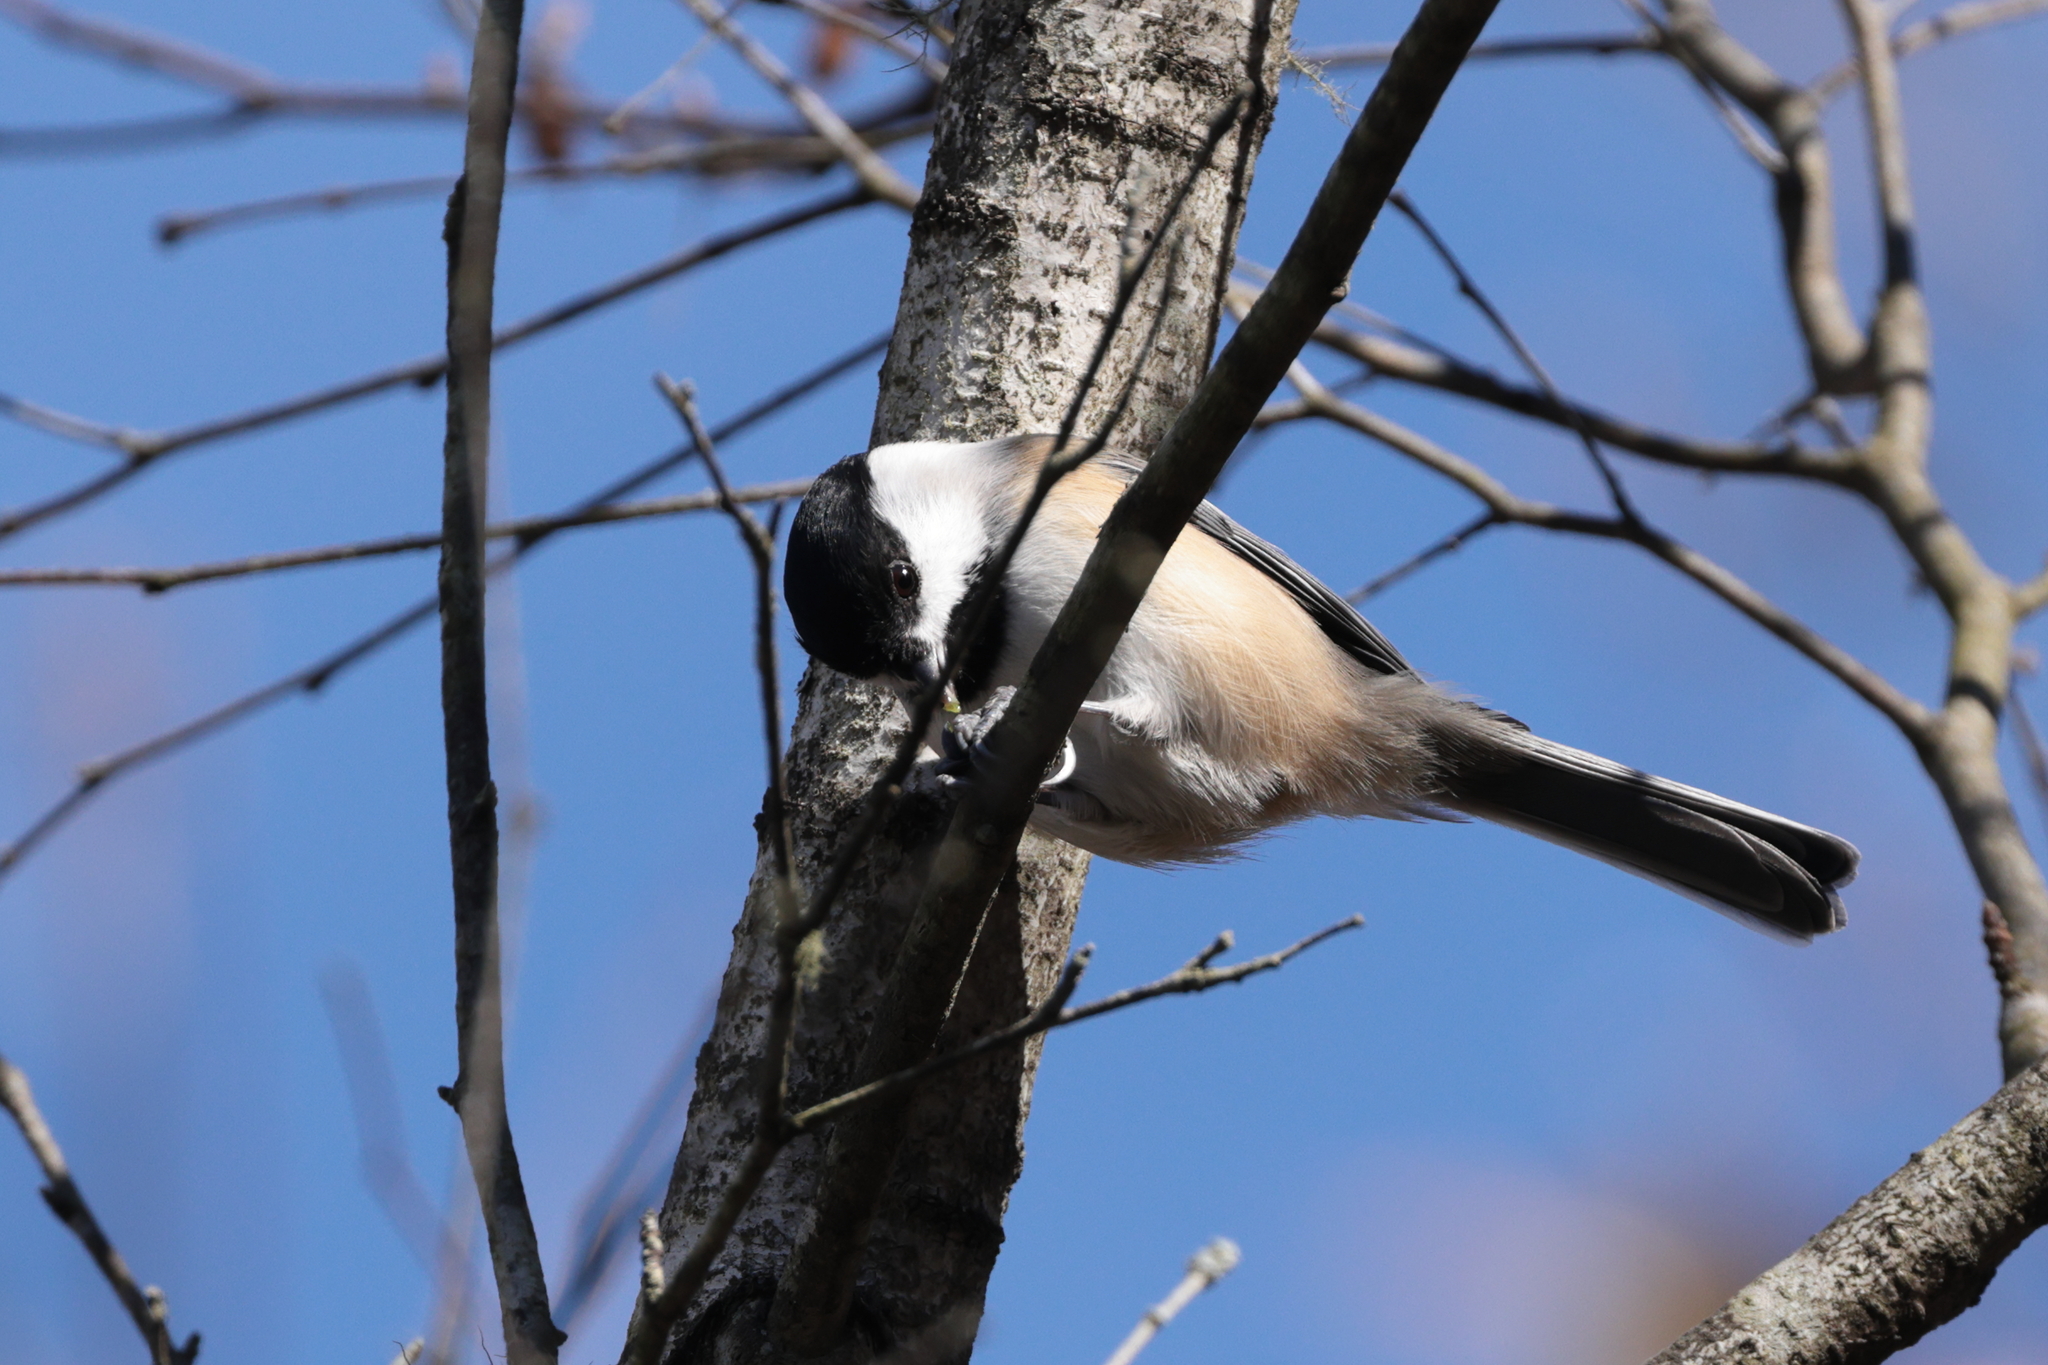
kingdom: Animalia
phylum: Chordata
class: Aves
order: Passeriformes
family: Paridae
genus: Poecile
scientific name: Poecile atricapillus
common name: Black-capped chickadee
